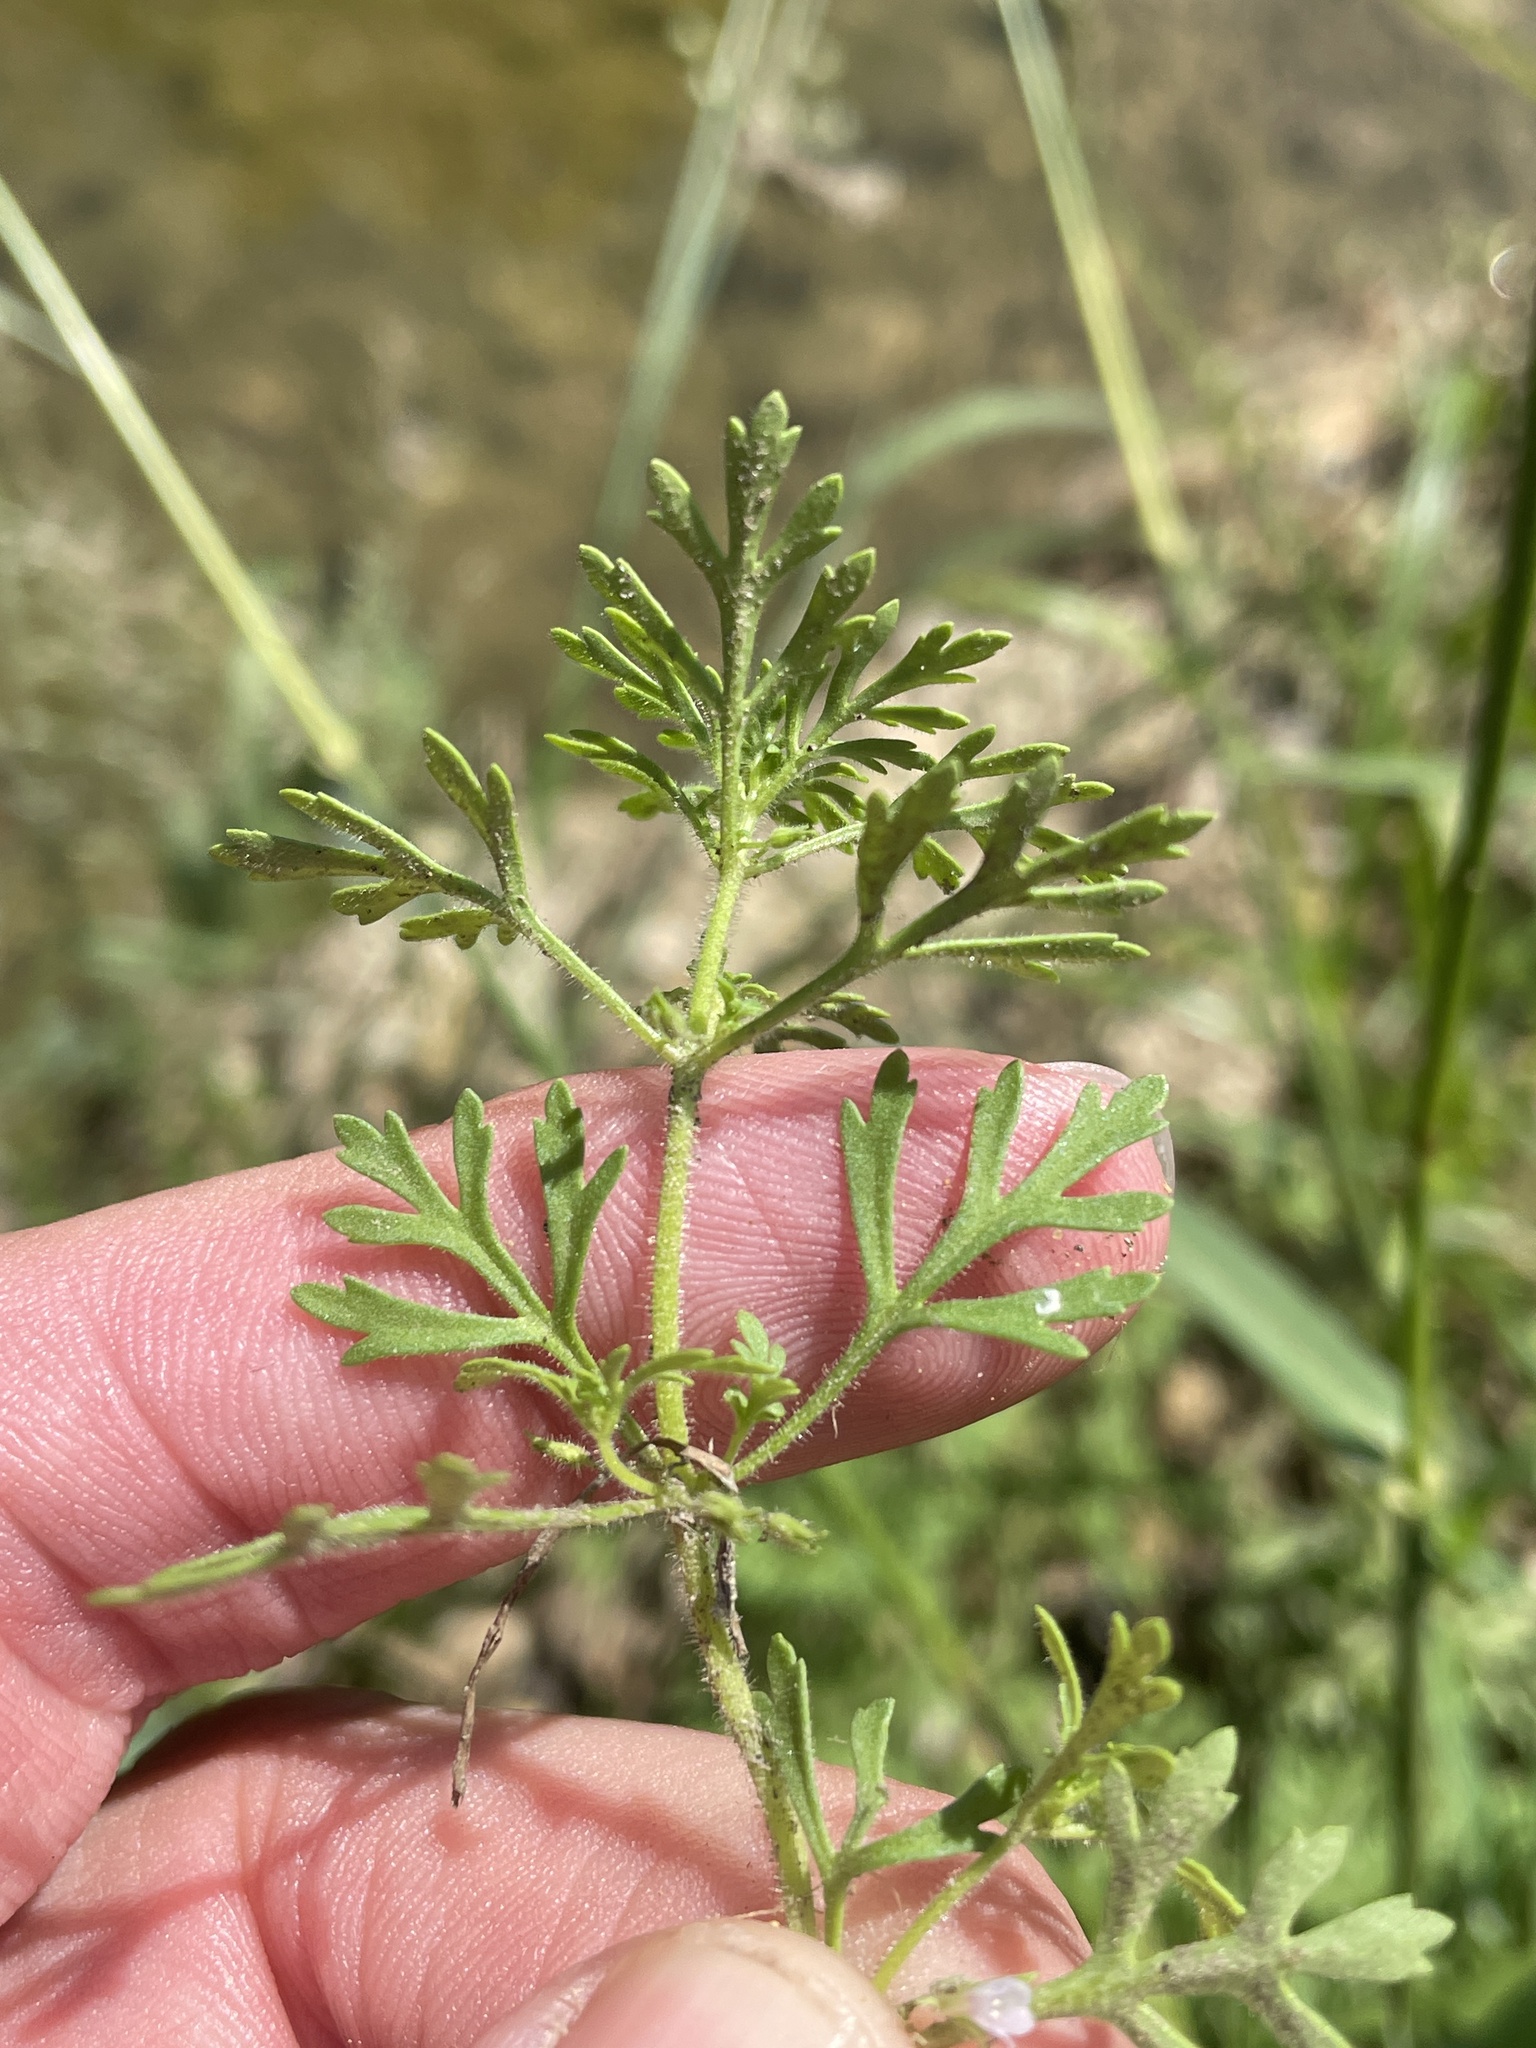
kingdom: Plantae
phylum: Tracheophyta
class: Magnoliopsida
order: Lamiales
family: Plantaginaceae
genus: Leucospora
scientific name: Leucospora multifida
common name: Narrow-leaf paleseed
